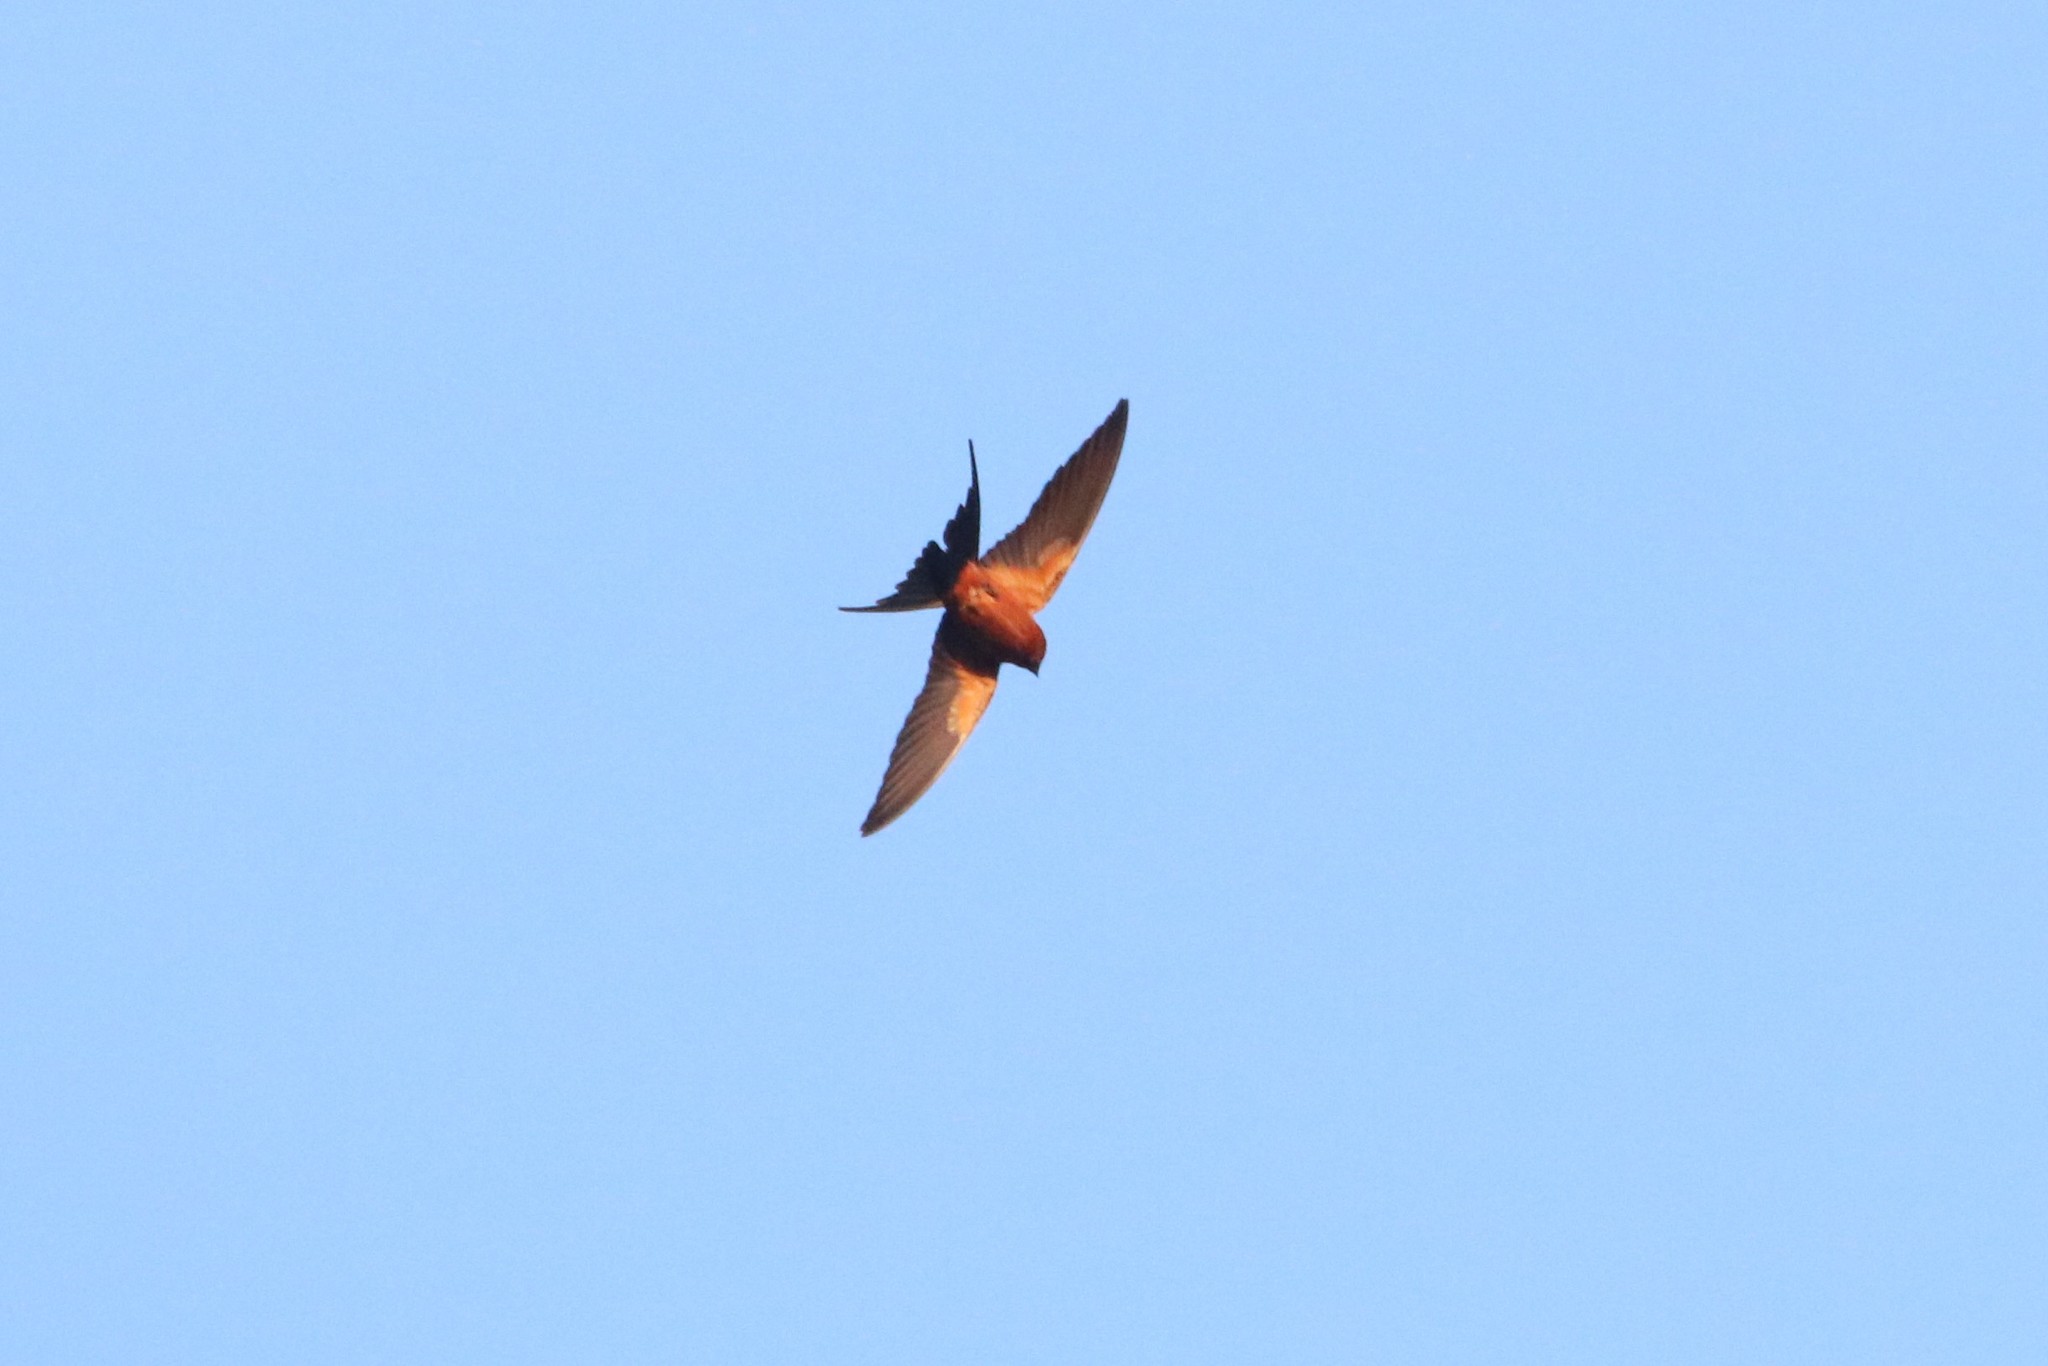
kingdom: Animalia
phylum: Chordata
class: Aves
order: Passeriformes
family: Hirundinidae
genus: Cecropis
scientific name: Cecropis badia
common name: Rufous-bellied swallow
